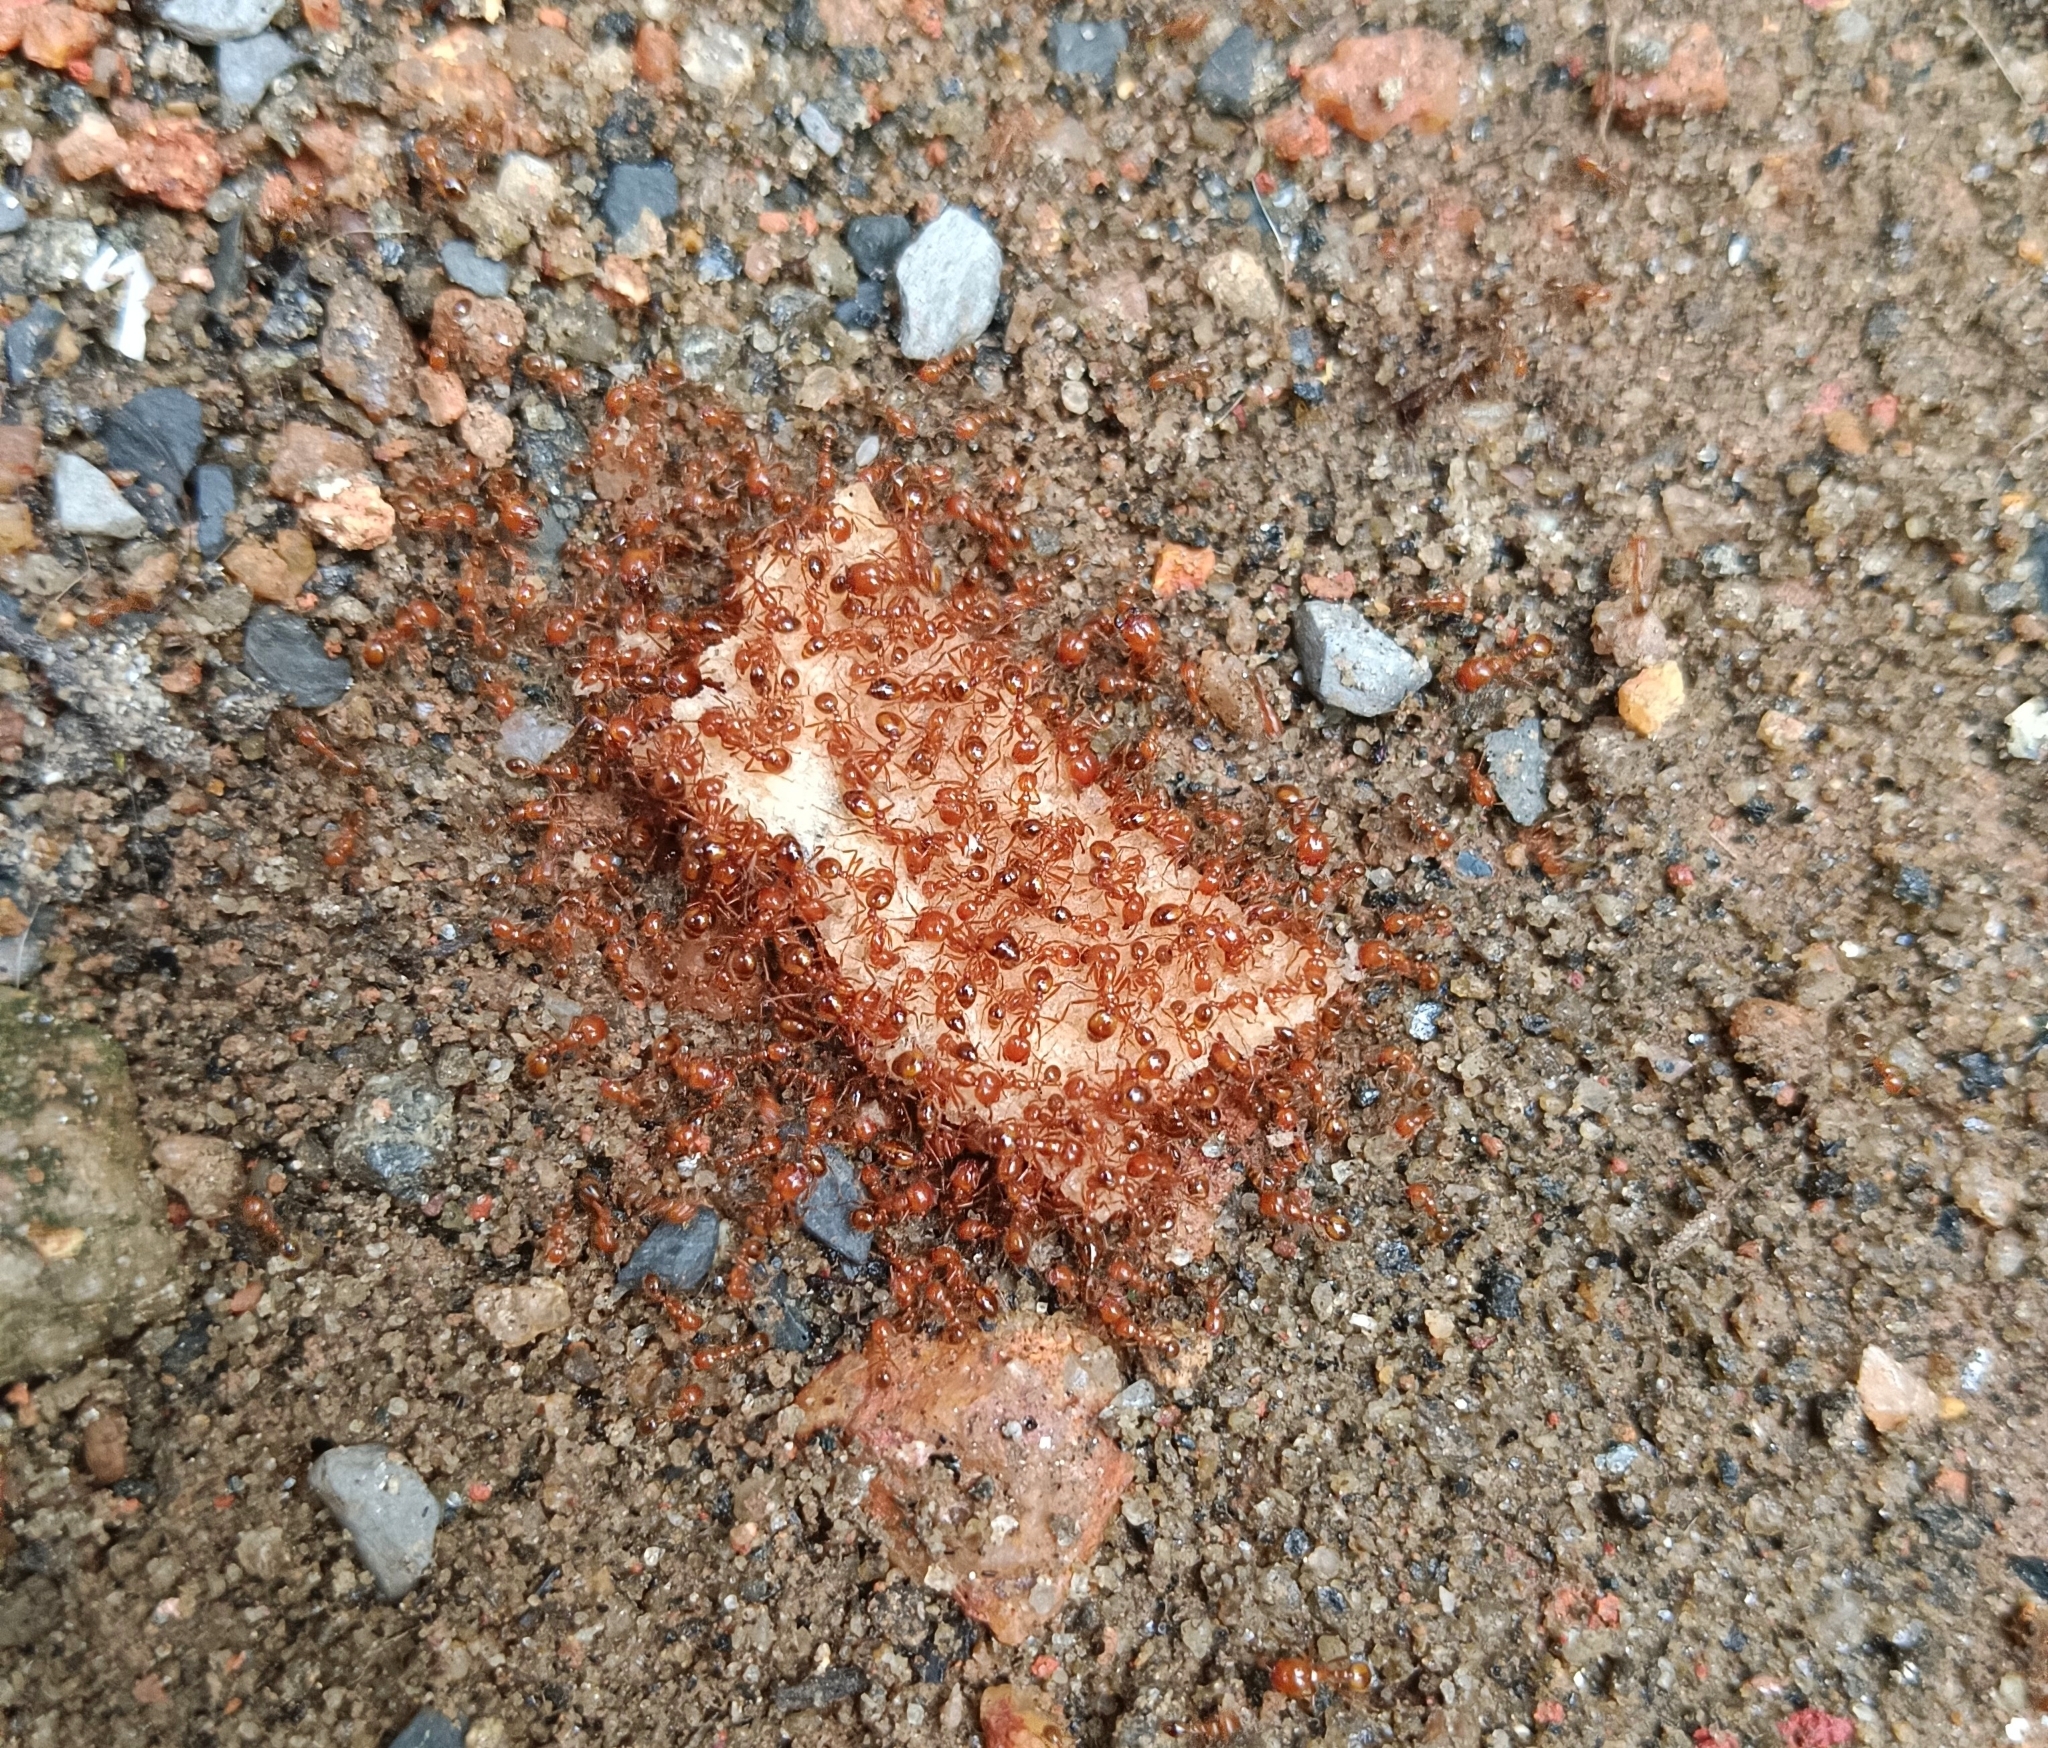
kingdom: Animalia
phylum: Arthropoda
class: Insecta
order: Hymenoptera
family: Formicidae
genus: Solenopsis
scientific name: Solenopsis geminata
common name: Tropical fire ant
